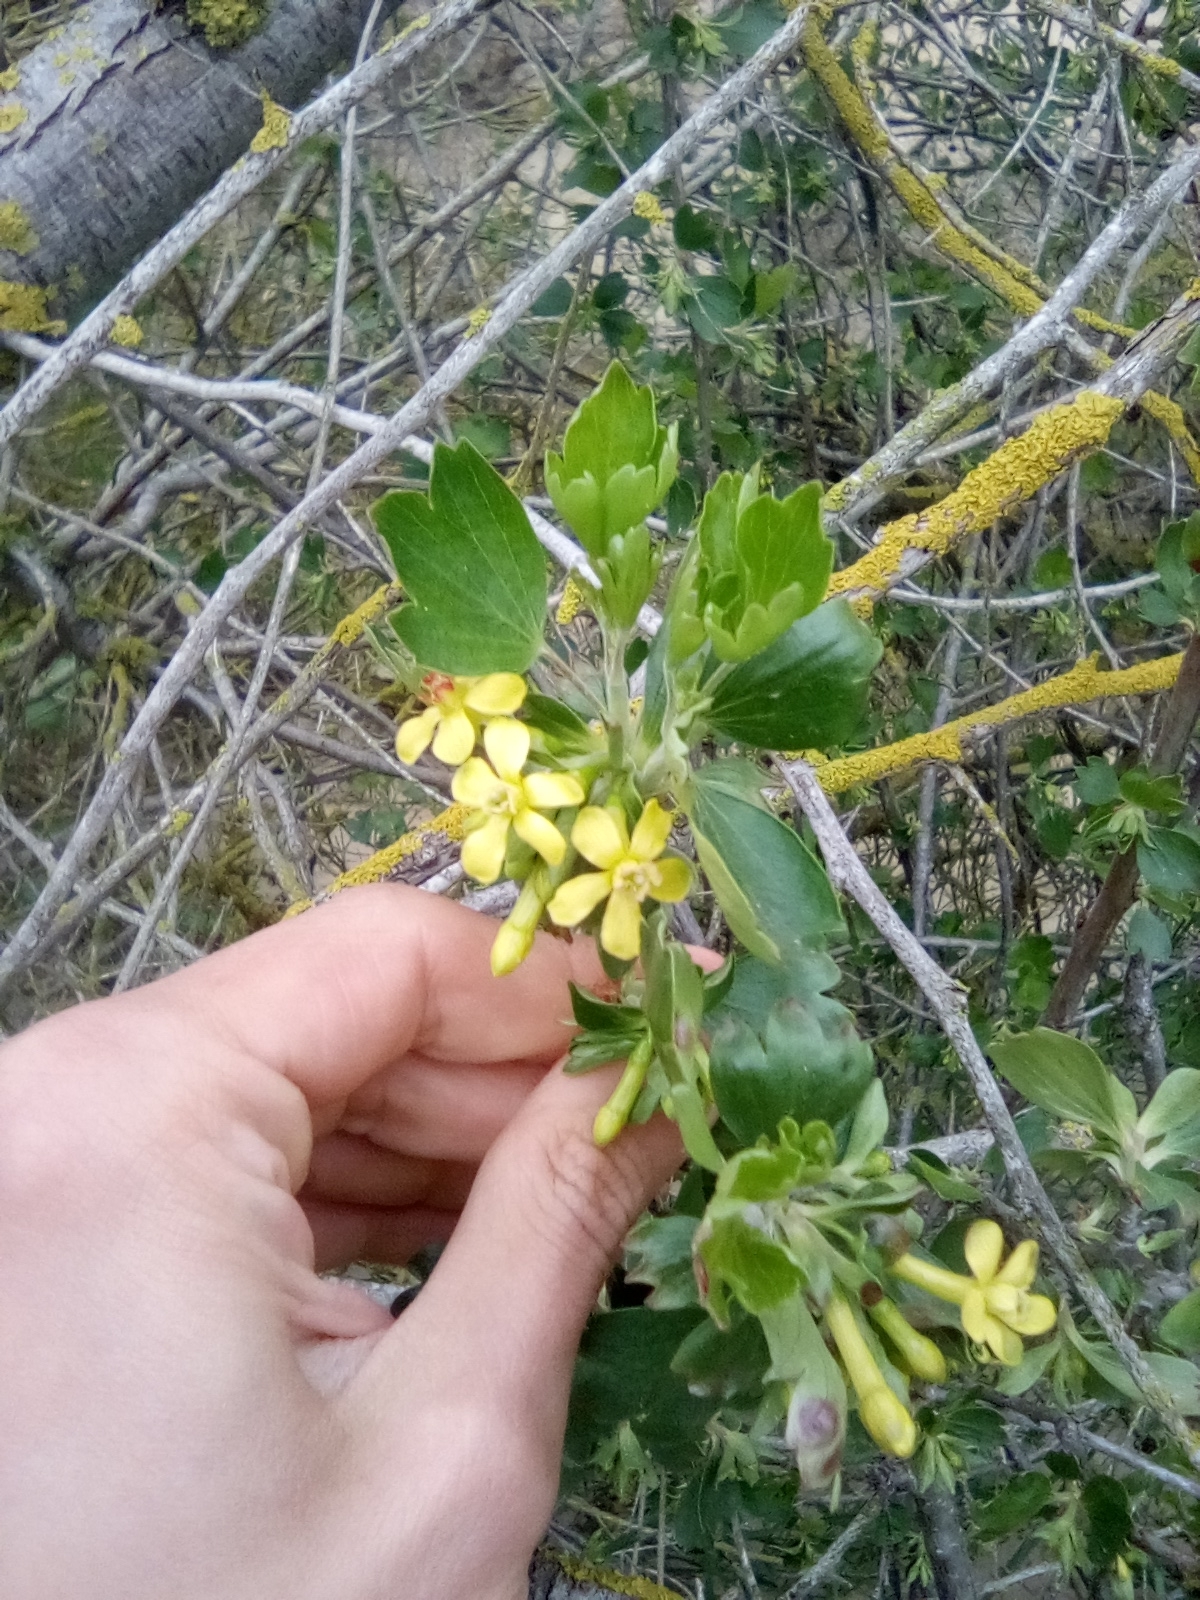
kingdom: Plantae
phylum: Tracheophyta
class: Magnoliopsida
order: Saxifragales
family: Grossulariaceae
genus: Ribes
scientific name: Ribes aureum
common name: Golden currant
